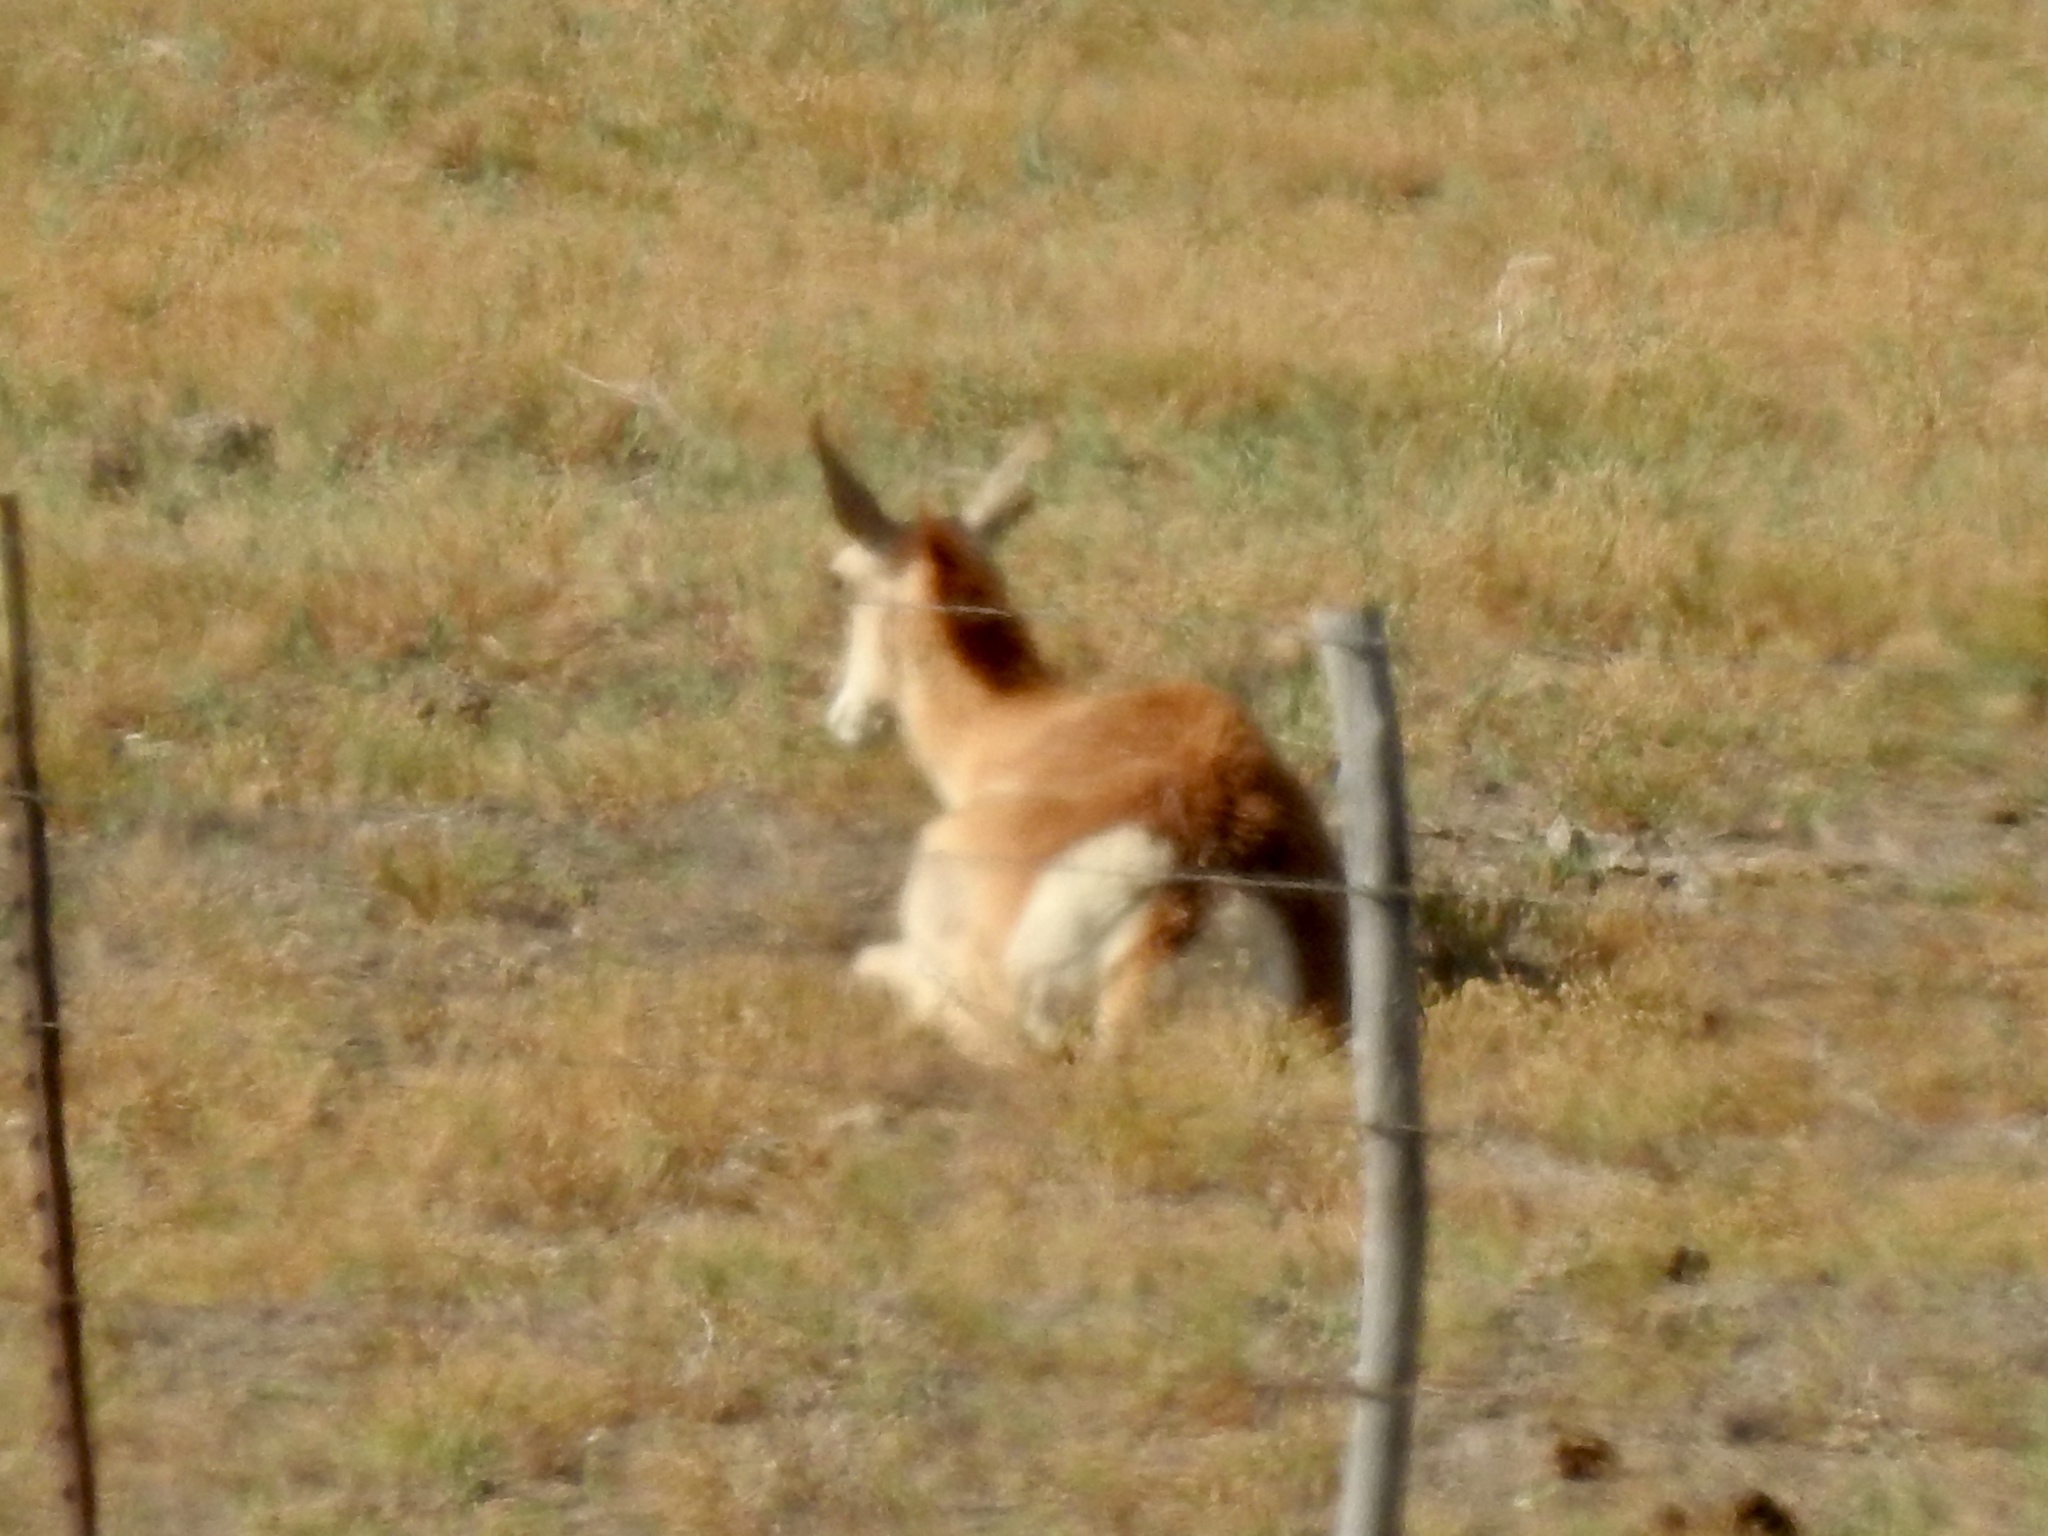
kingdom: Animalia
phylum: Chordata
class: Mammalia
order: Artiodactyla
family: Antilocapridae
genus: Antilocapra
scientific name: Antilocapra americana
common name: Pronghorn
